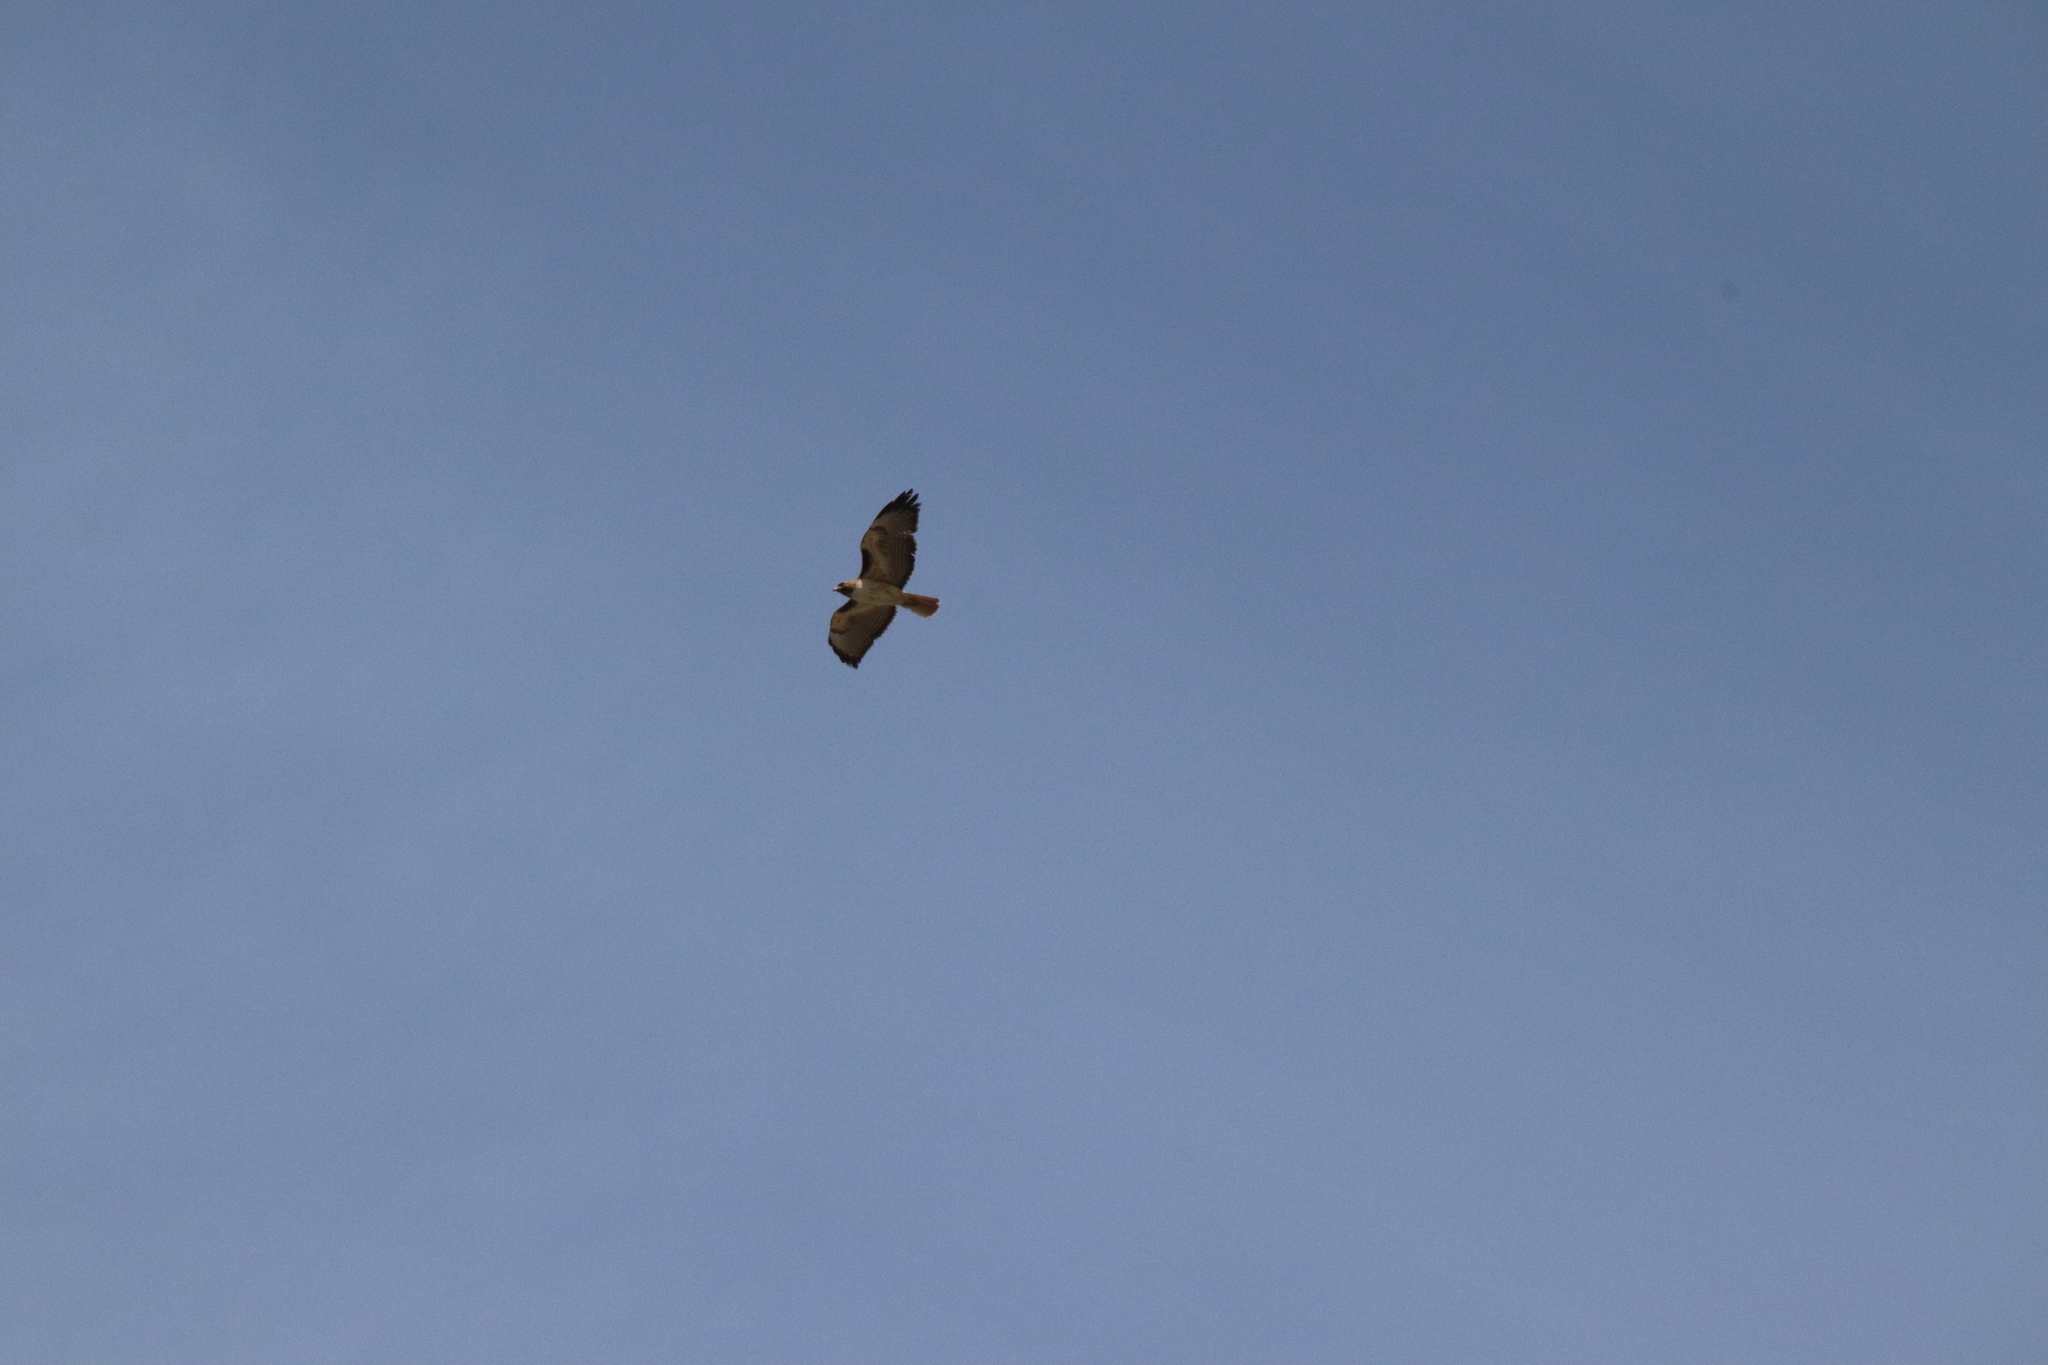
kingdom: Animalia
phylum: Chordata
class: Aves
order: Accipitriformes
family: Accipitridae
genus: Buteo
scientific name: Buteo jamaicensis
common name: Red-tailed hawk
